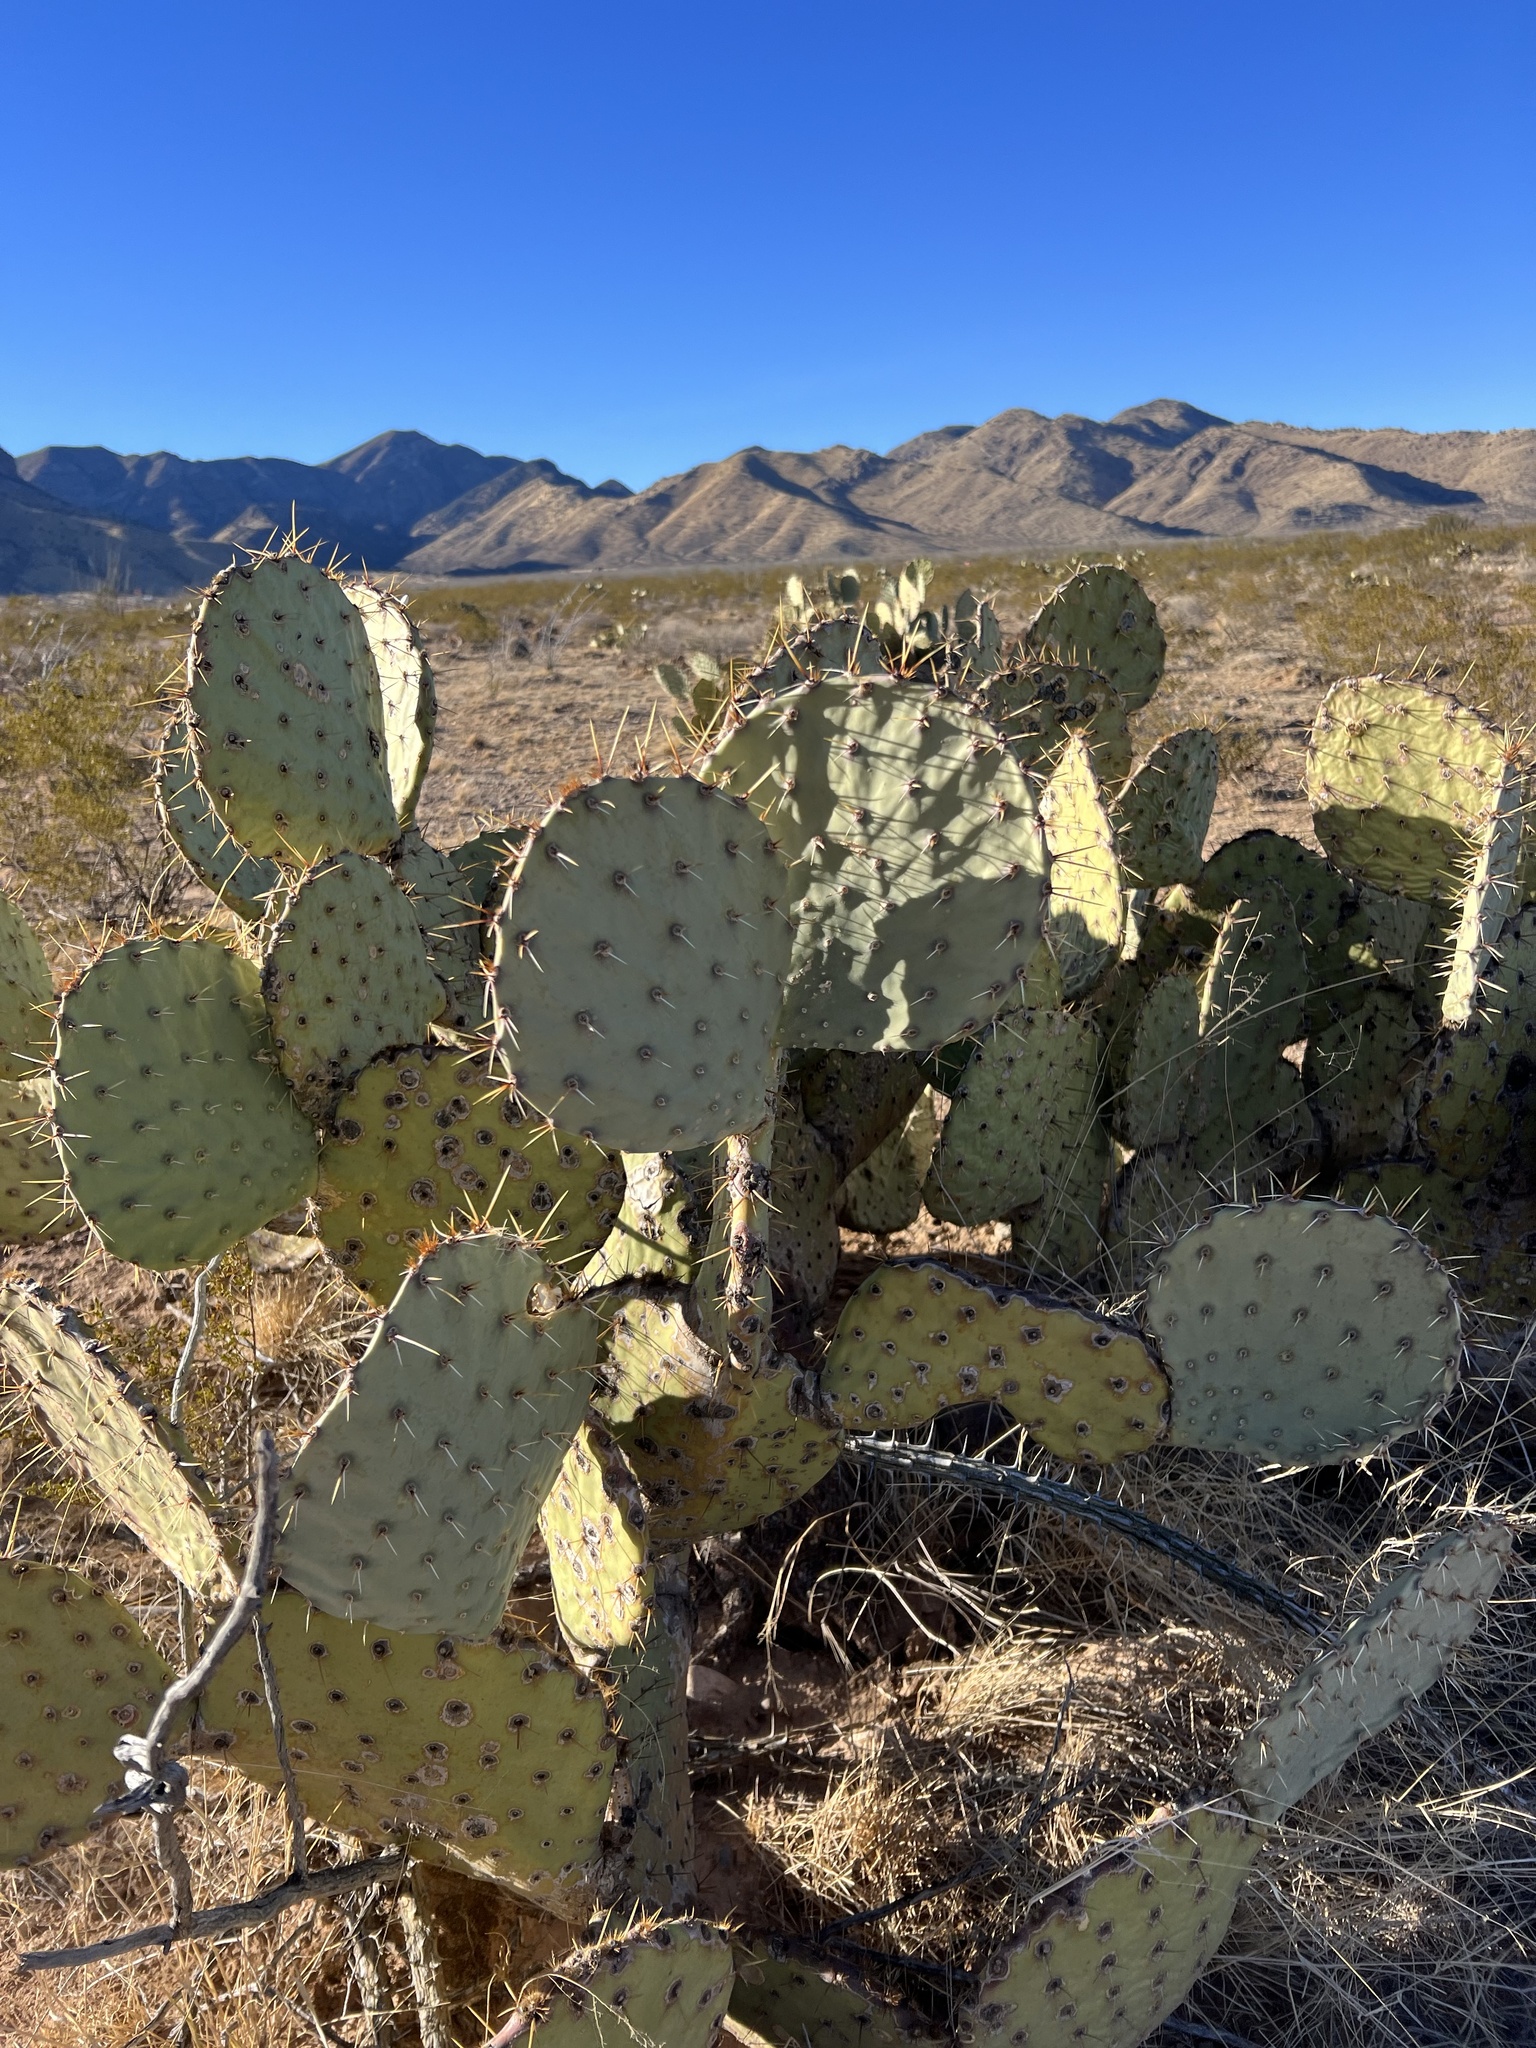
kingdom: Plantae
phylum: Tracheophyta
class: Magnoliopsida
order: Caryophyllales
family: Cactaceae
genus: Opuntia
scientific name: Opuntia engelmannii
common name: Cactus-apple
